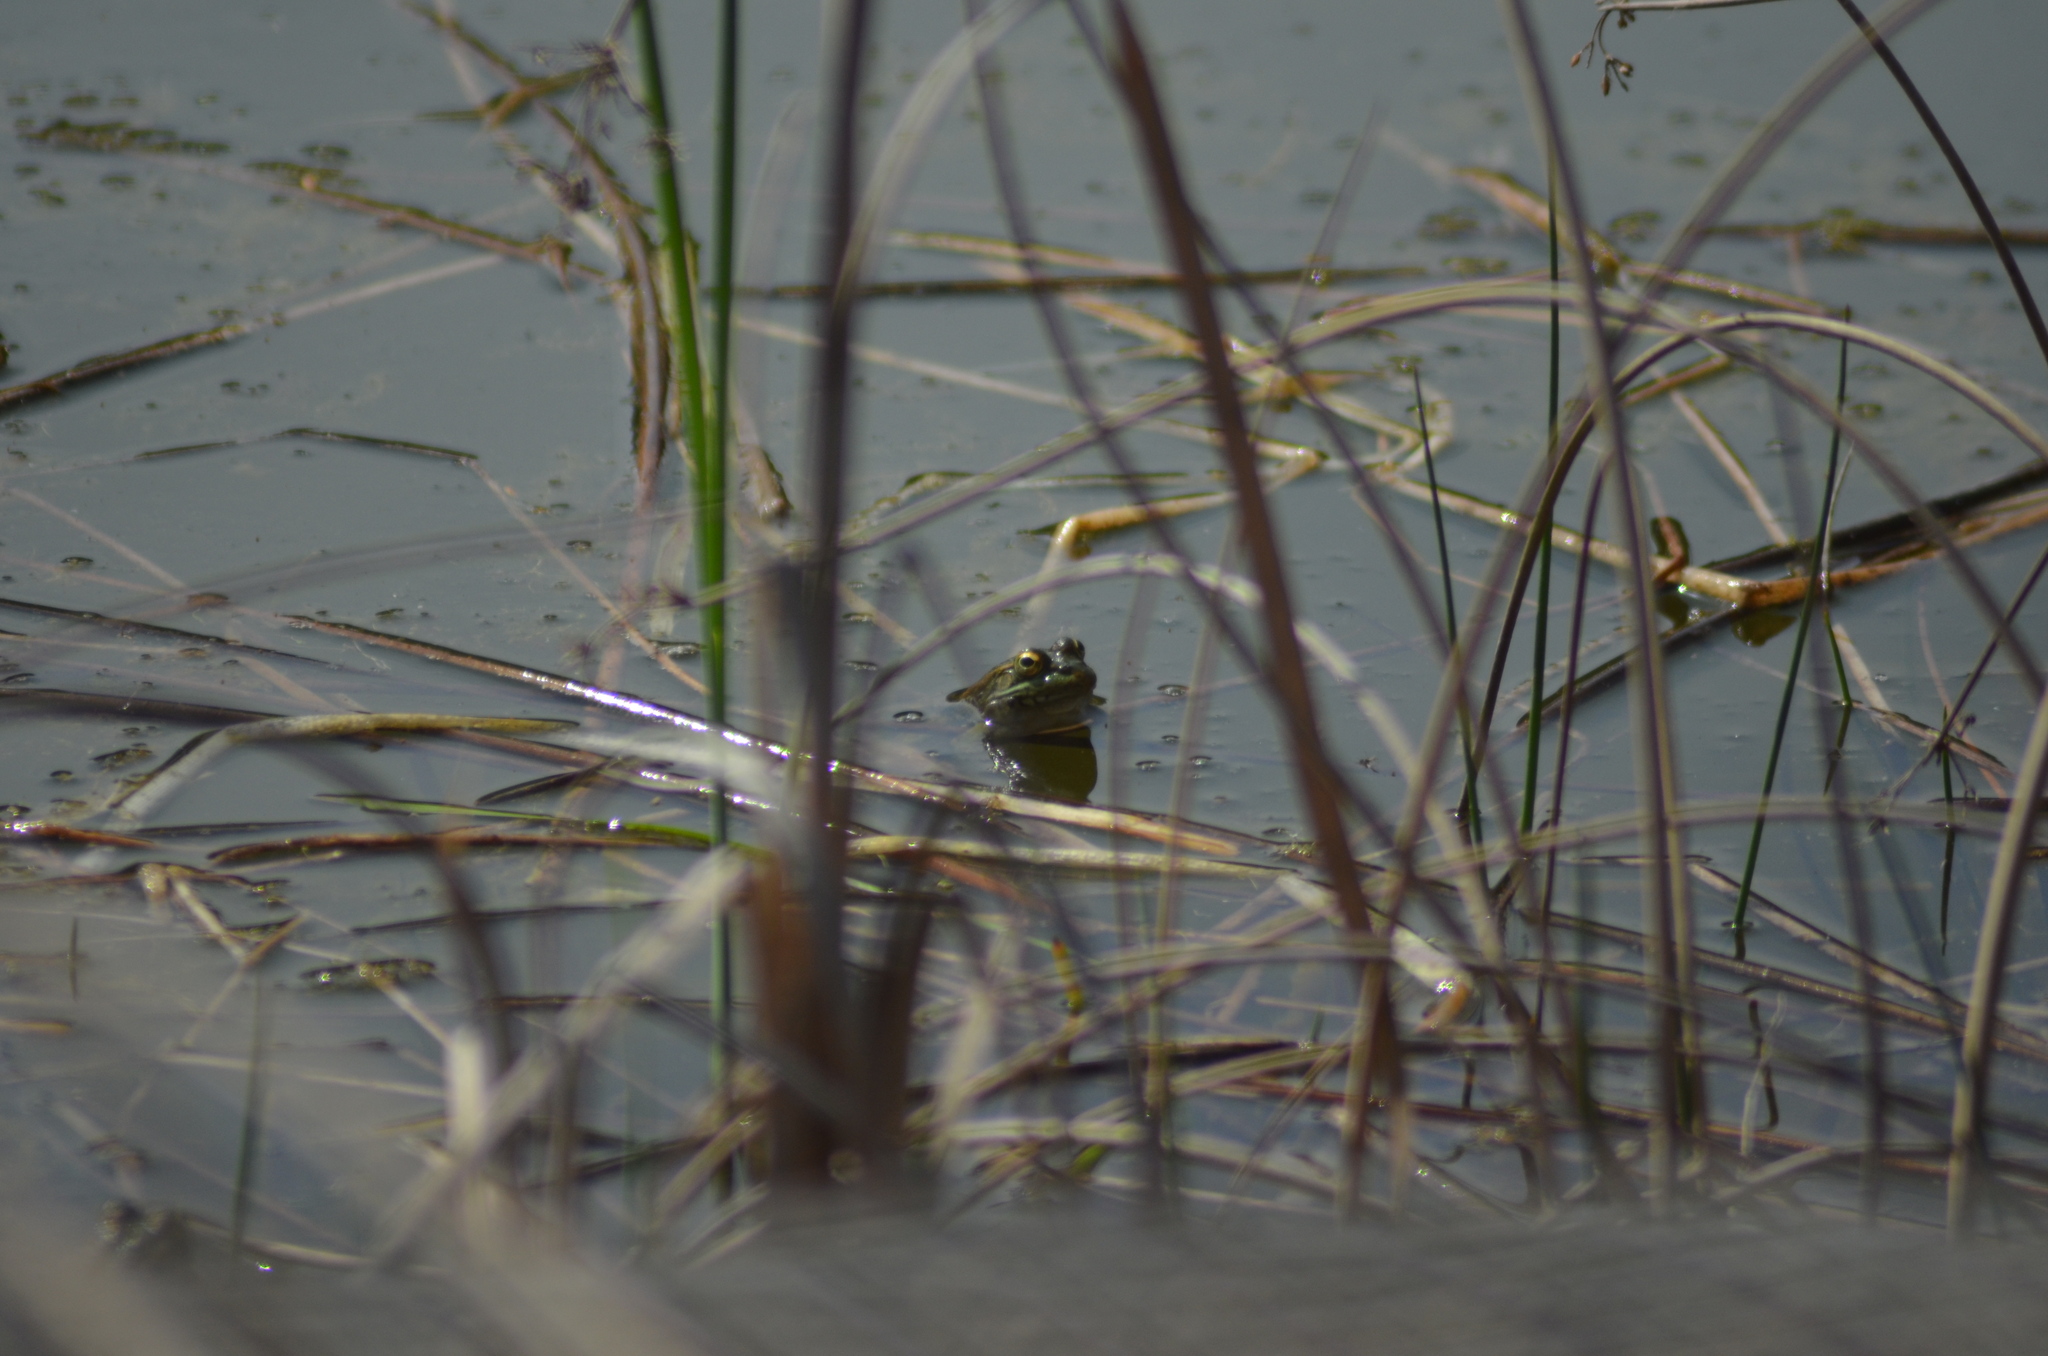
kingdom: Animalia
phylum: Chordata
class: Amphibia
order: Anura
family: Ranidae
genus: Pelophylax
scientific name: Pelophylax
